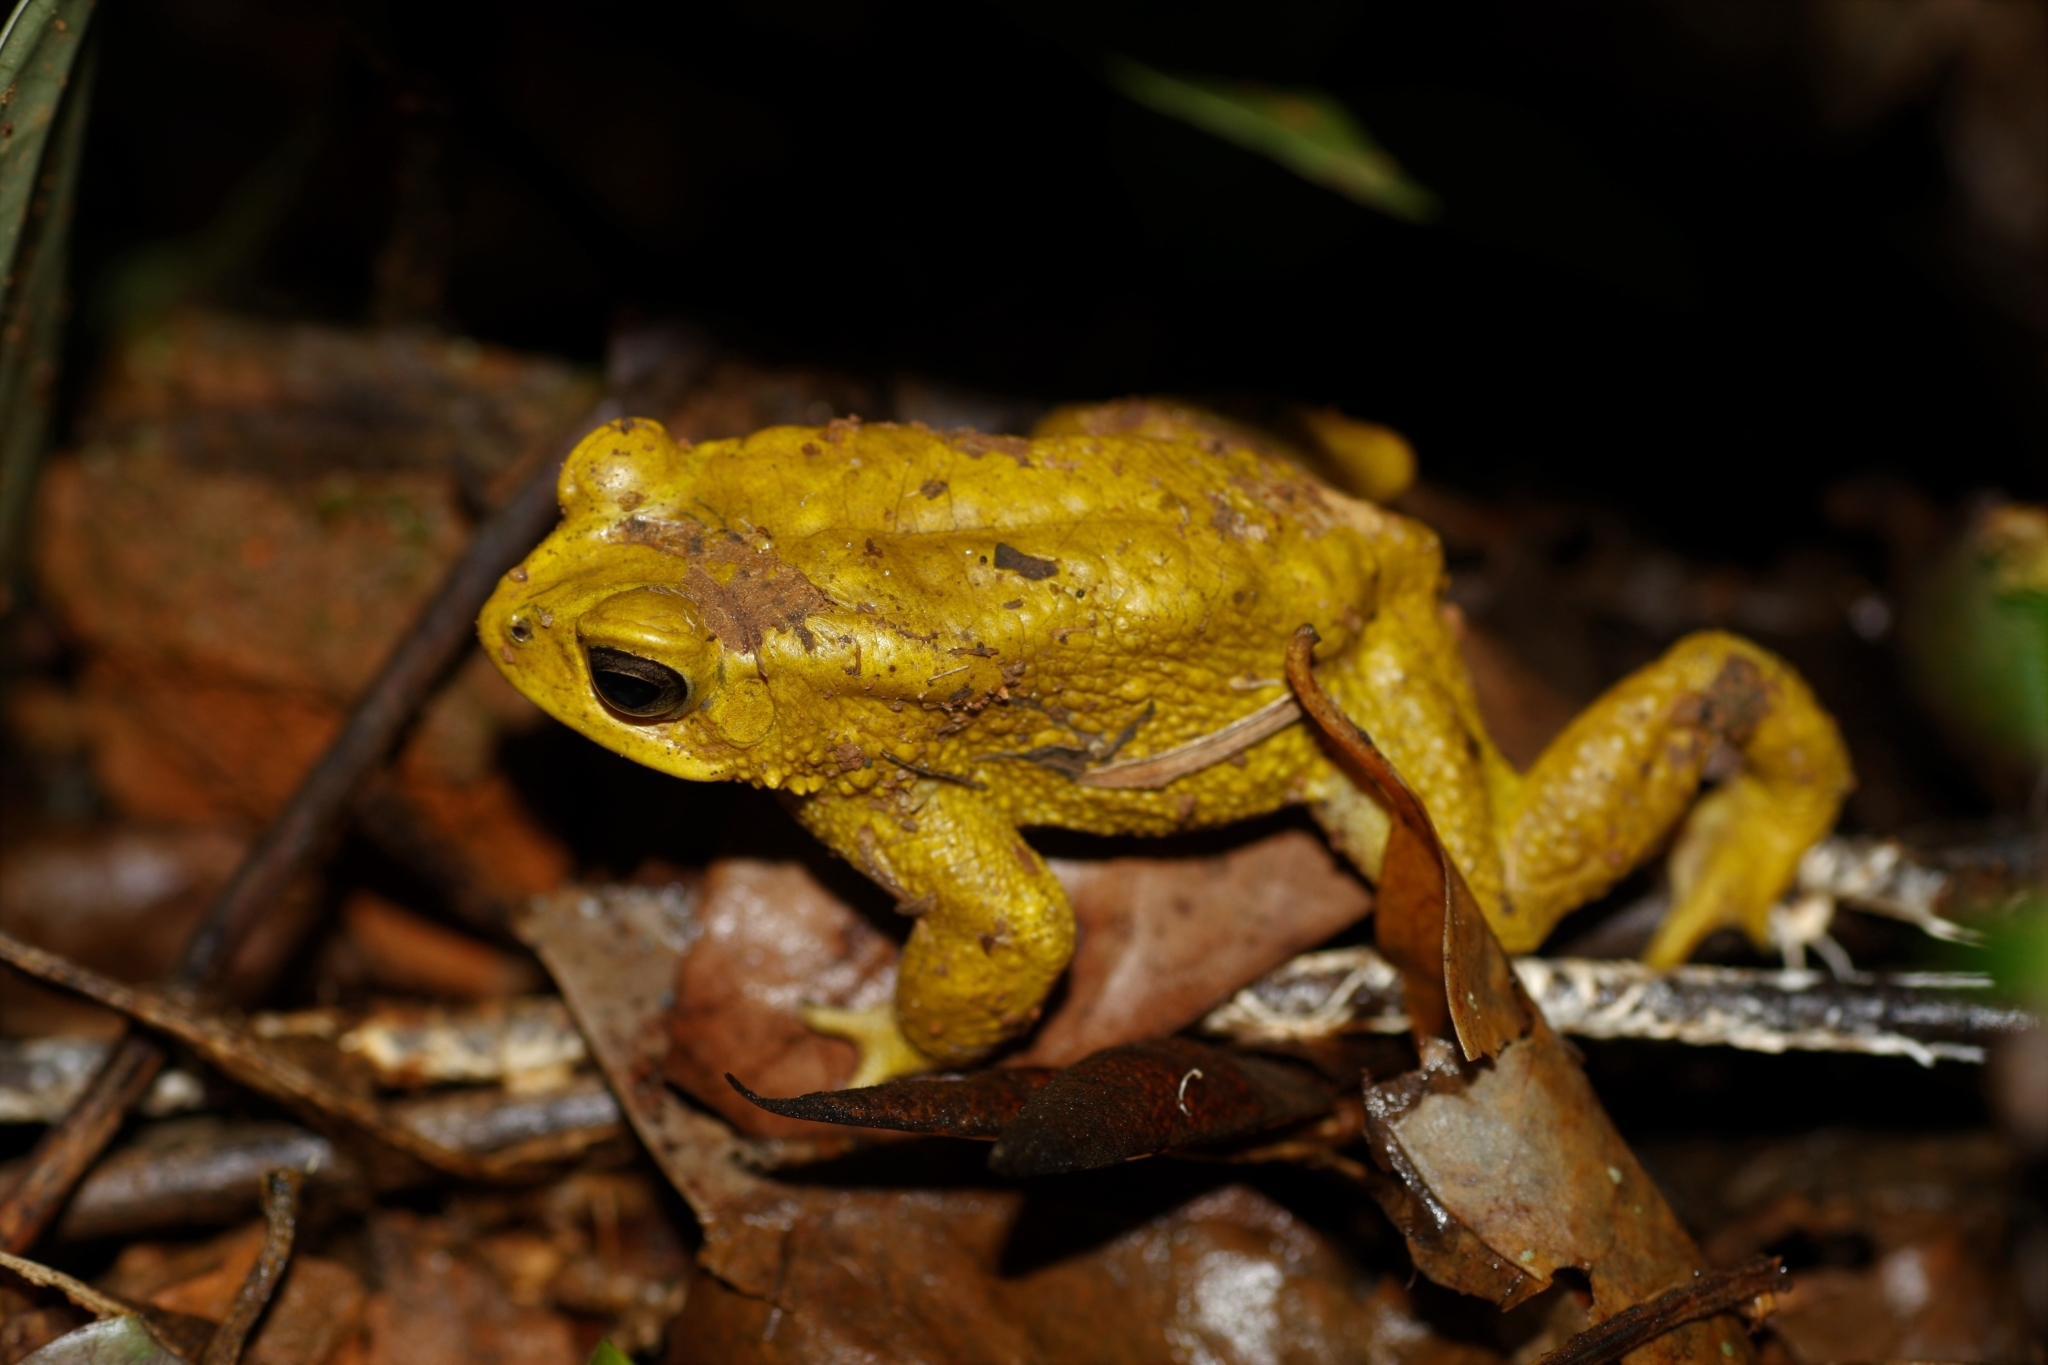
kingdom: Animalia
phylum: Chordata
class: Amphibia
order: Anura
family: Bufonidae
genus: Duttaphrynus
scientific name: Duttaphrynus melanostictus
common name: Common sunda toad
